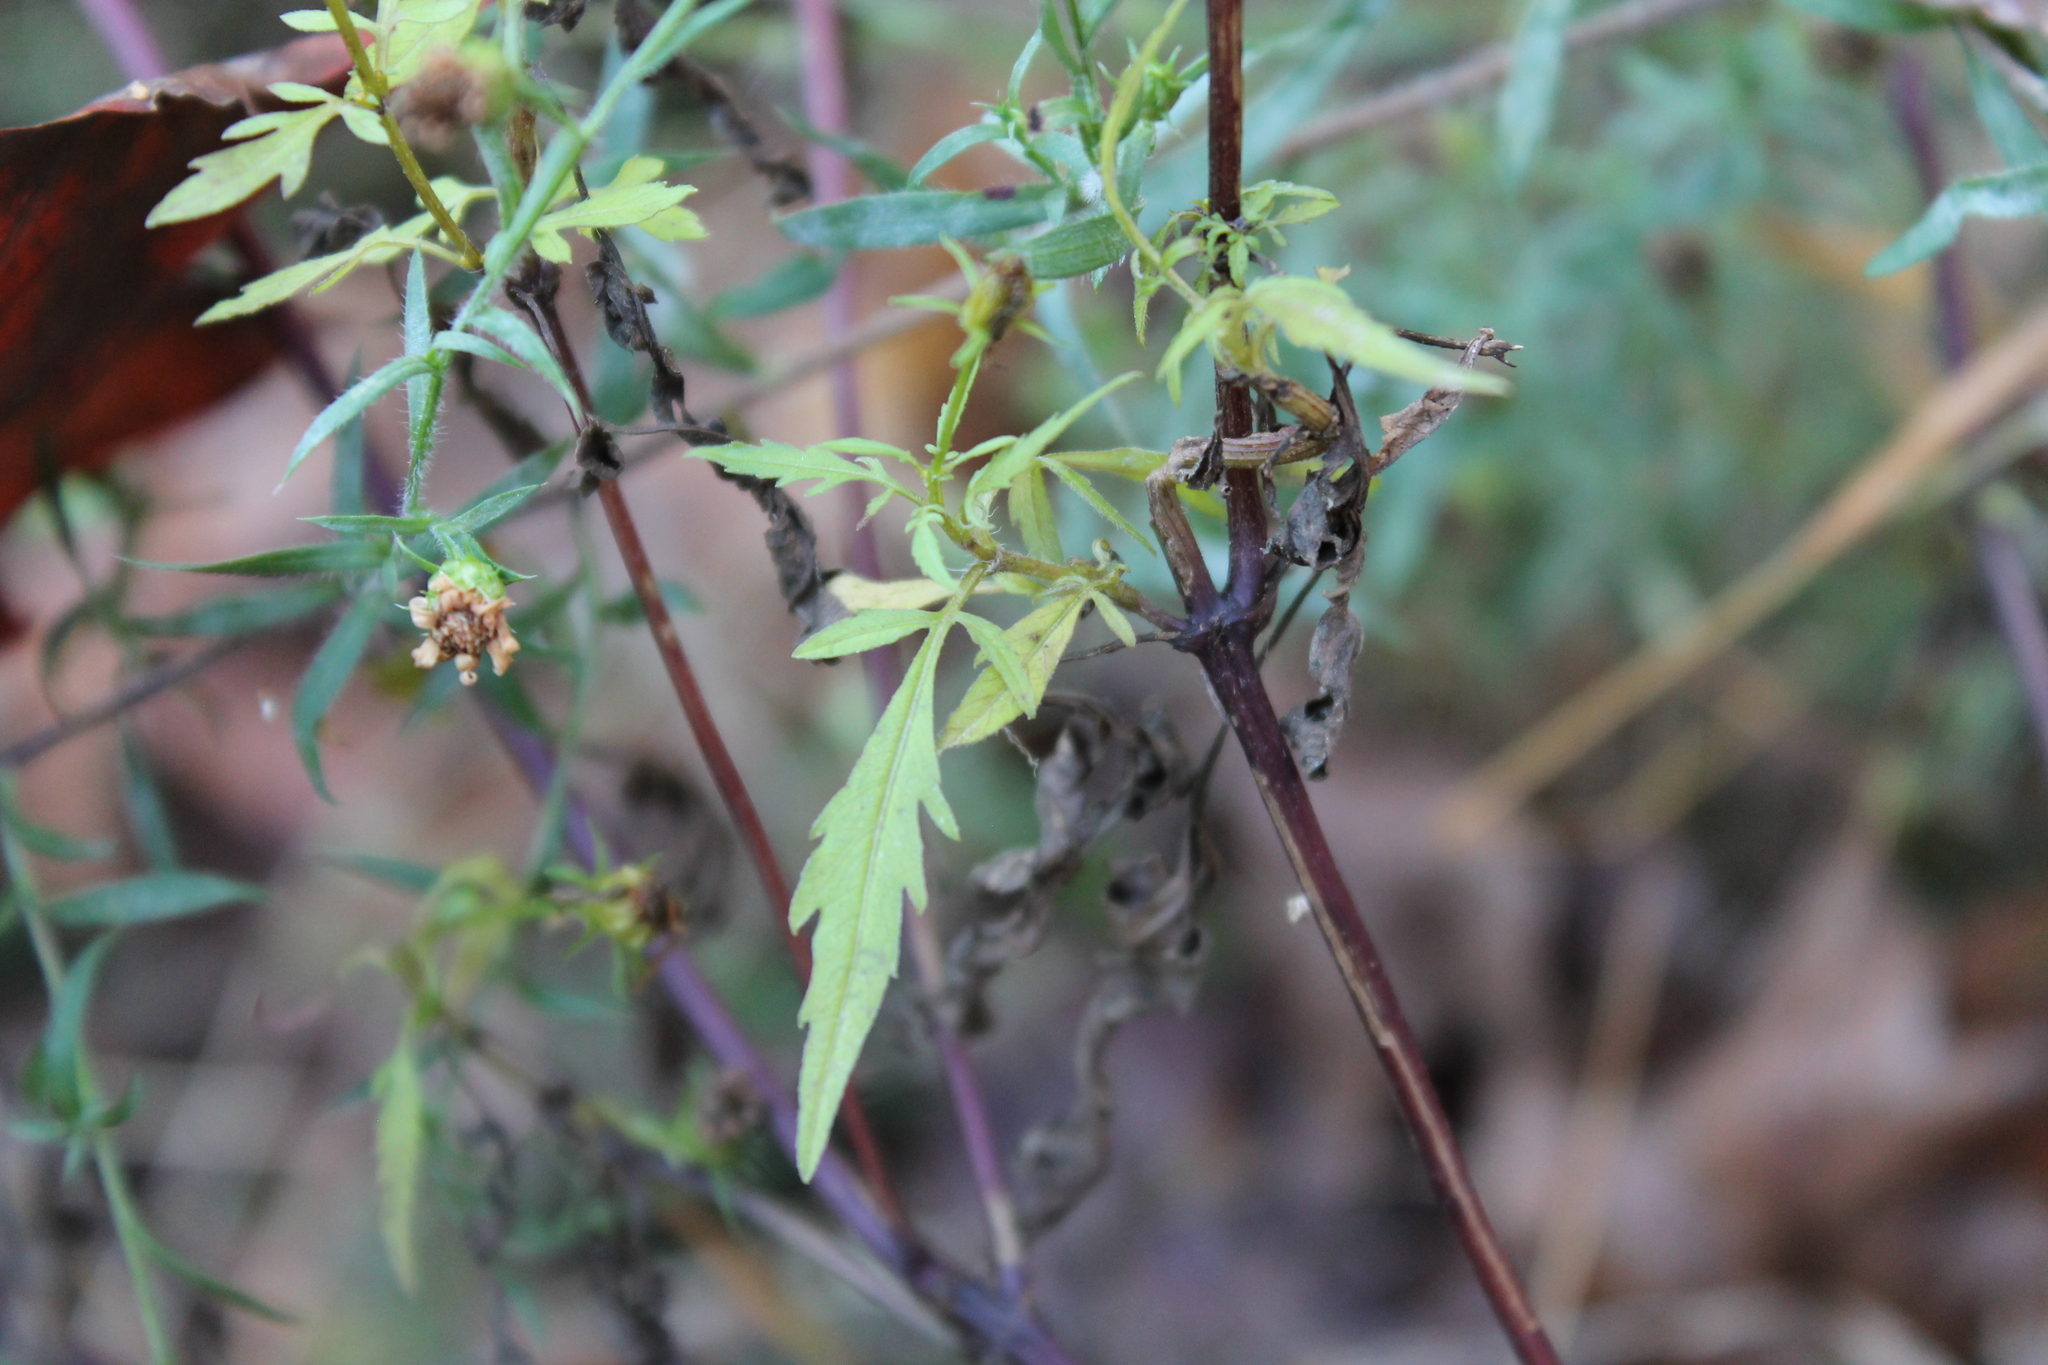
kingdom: Plantae
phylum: Tracheophyta
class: Magnoliopsida
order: Asterales
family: Asteraceae
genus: Bidens
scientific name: Bidens aristosa
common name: Western tickseed
